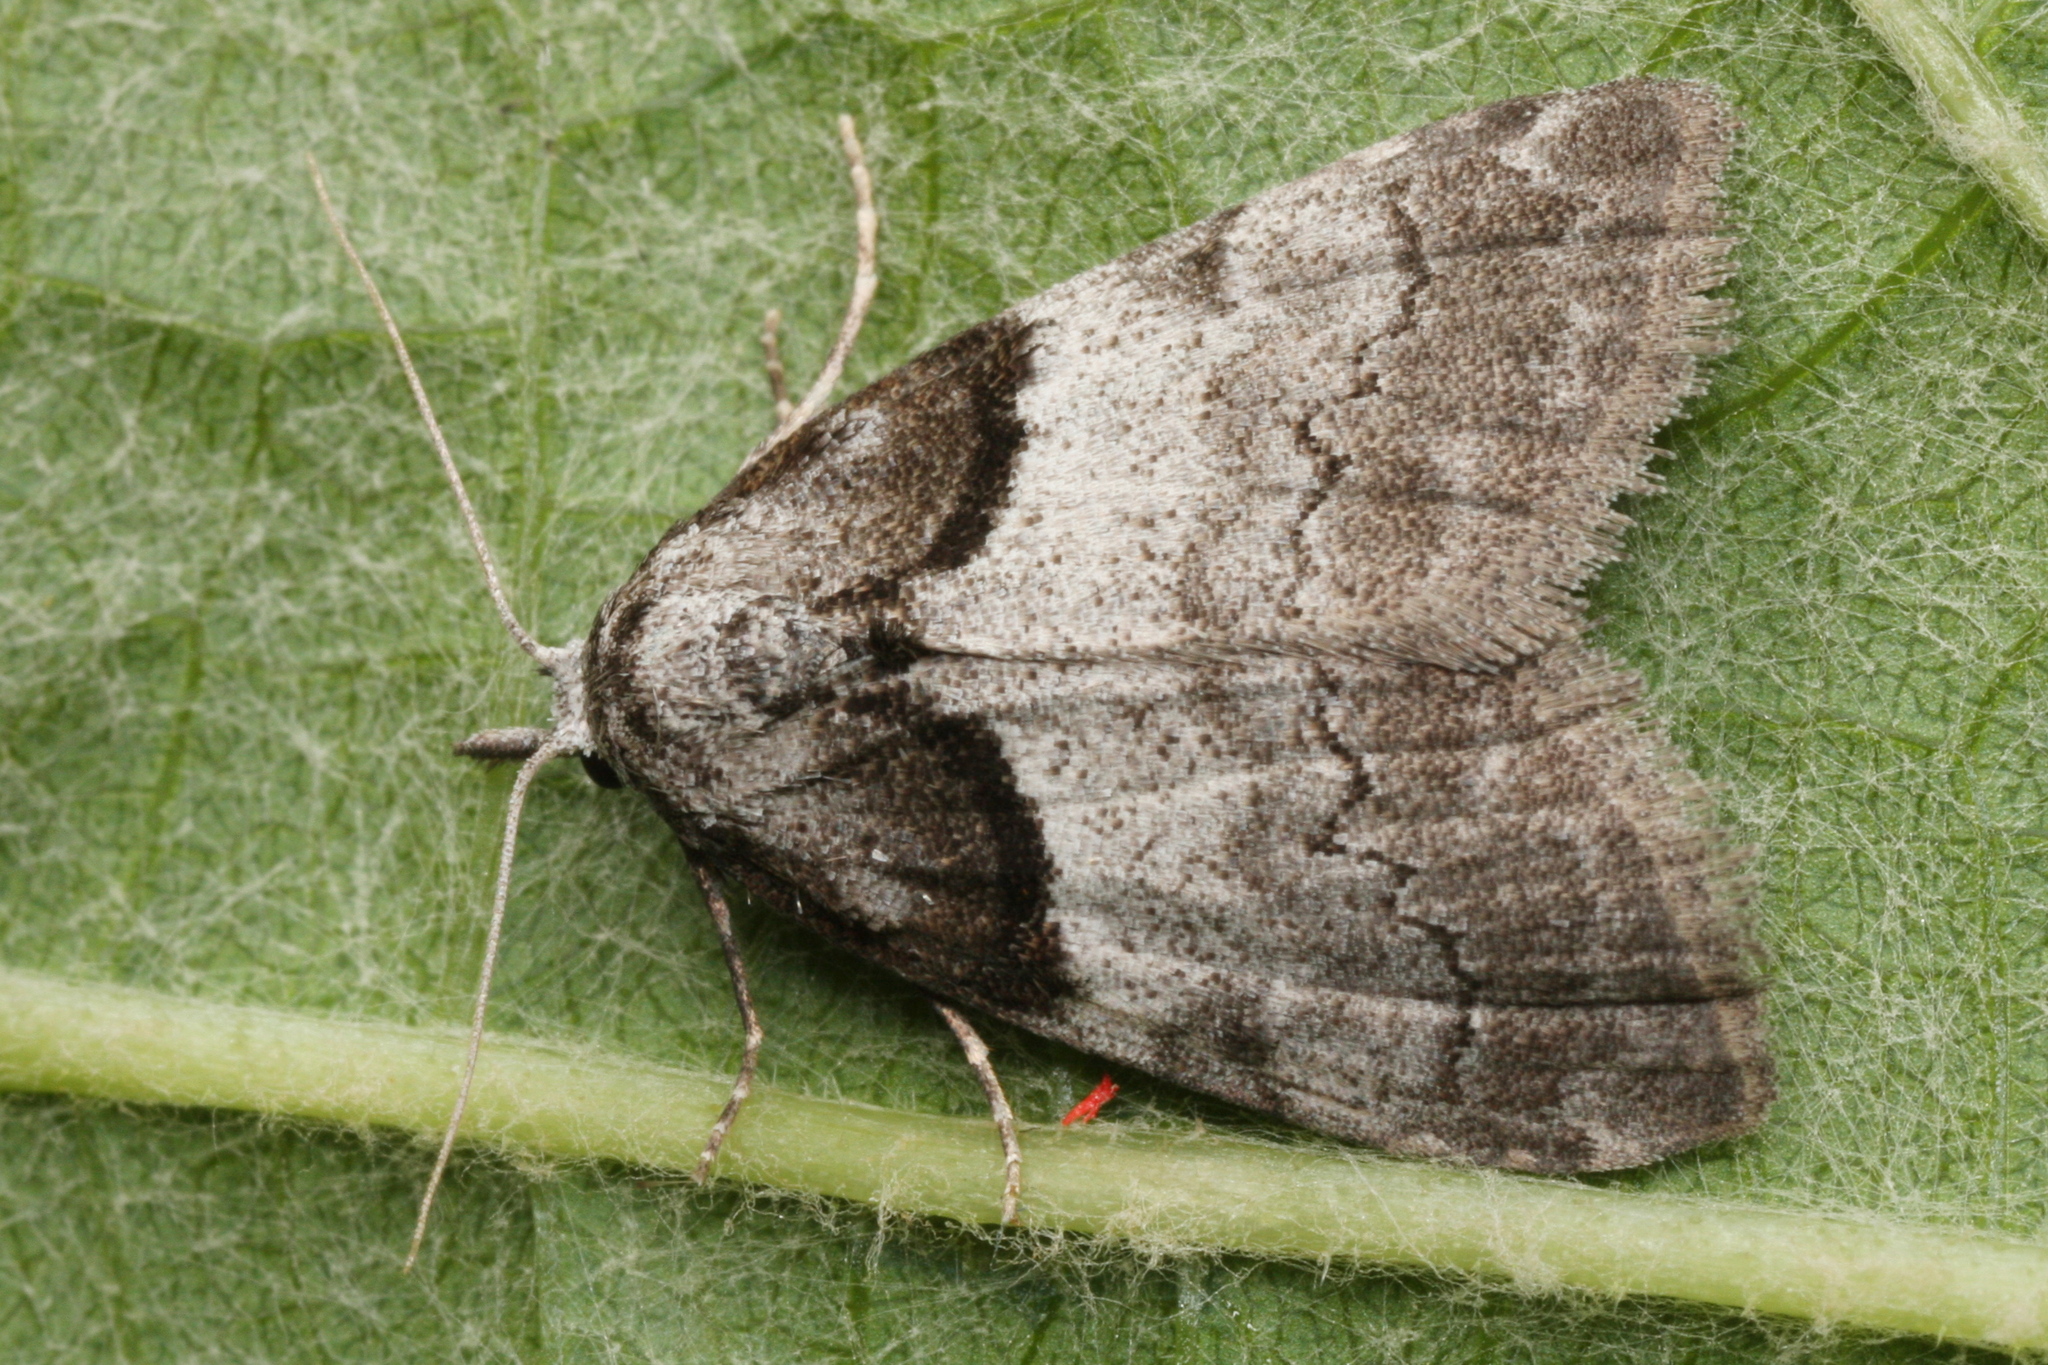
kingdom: Animalia
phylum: Arthropoda
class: Insecta
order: Lepidoptera
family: Nolidae
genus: Nola
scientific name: Nola cucullatella
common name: Short-cloaked moth
